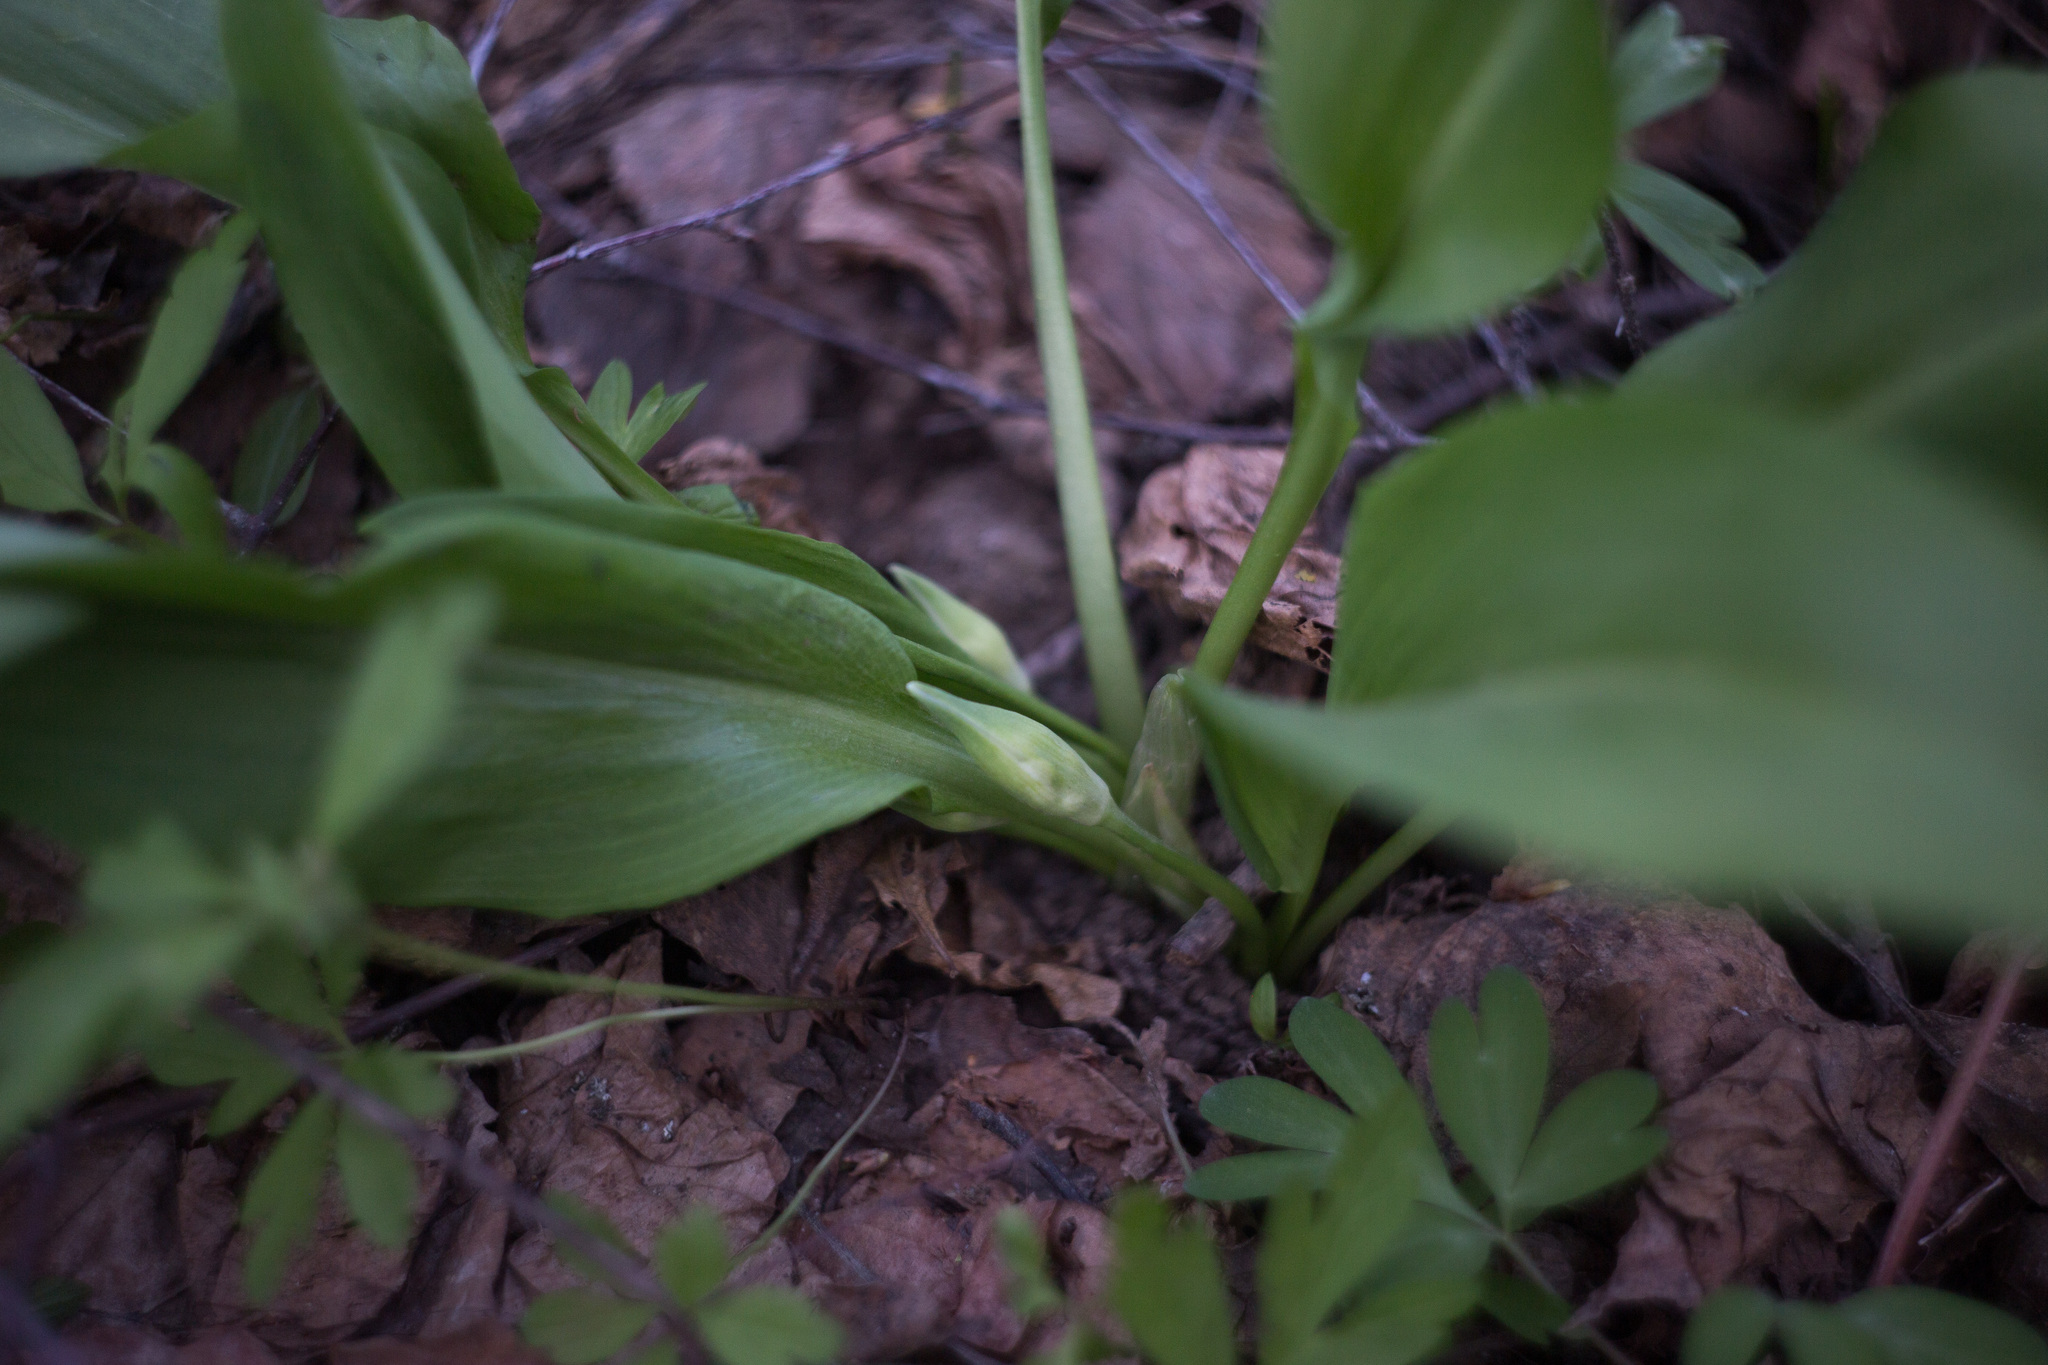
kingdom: Plantae
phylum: Tracheophyta
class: Liliopsida
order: Asparagales
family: Amaryllidaceae
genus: Allium
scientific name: Allium ursinum
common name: Ramsons
